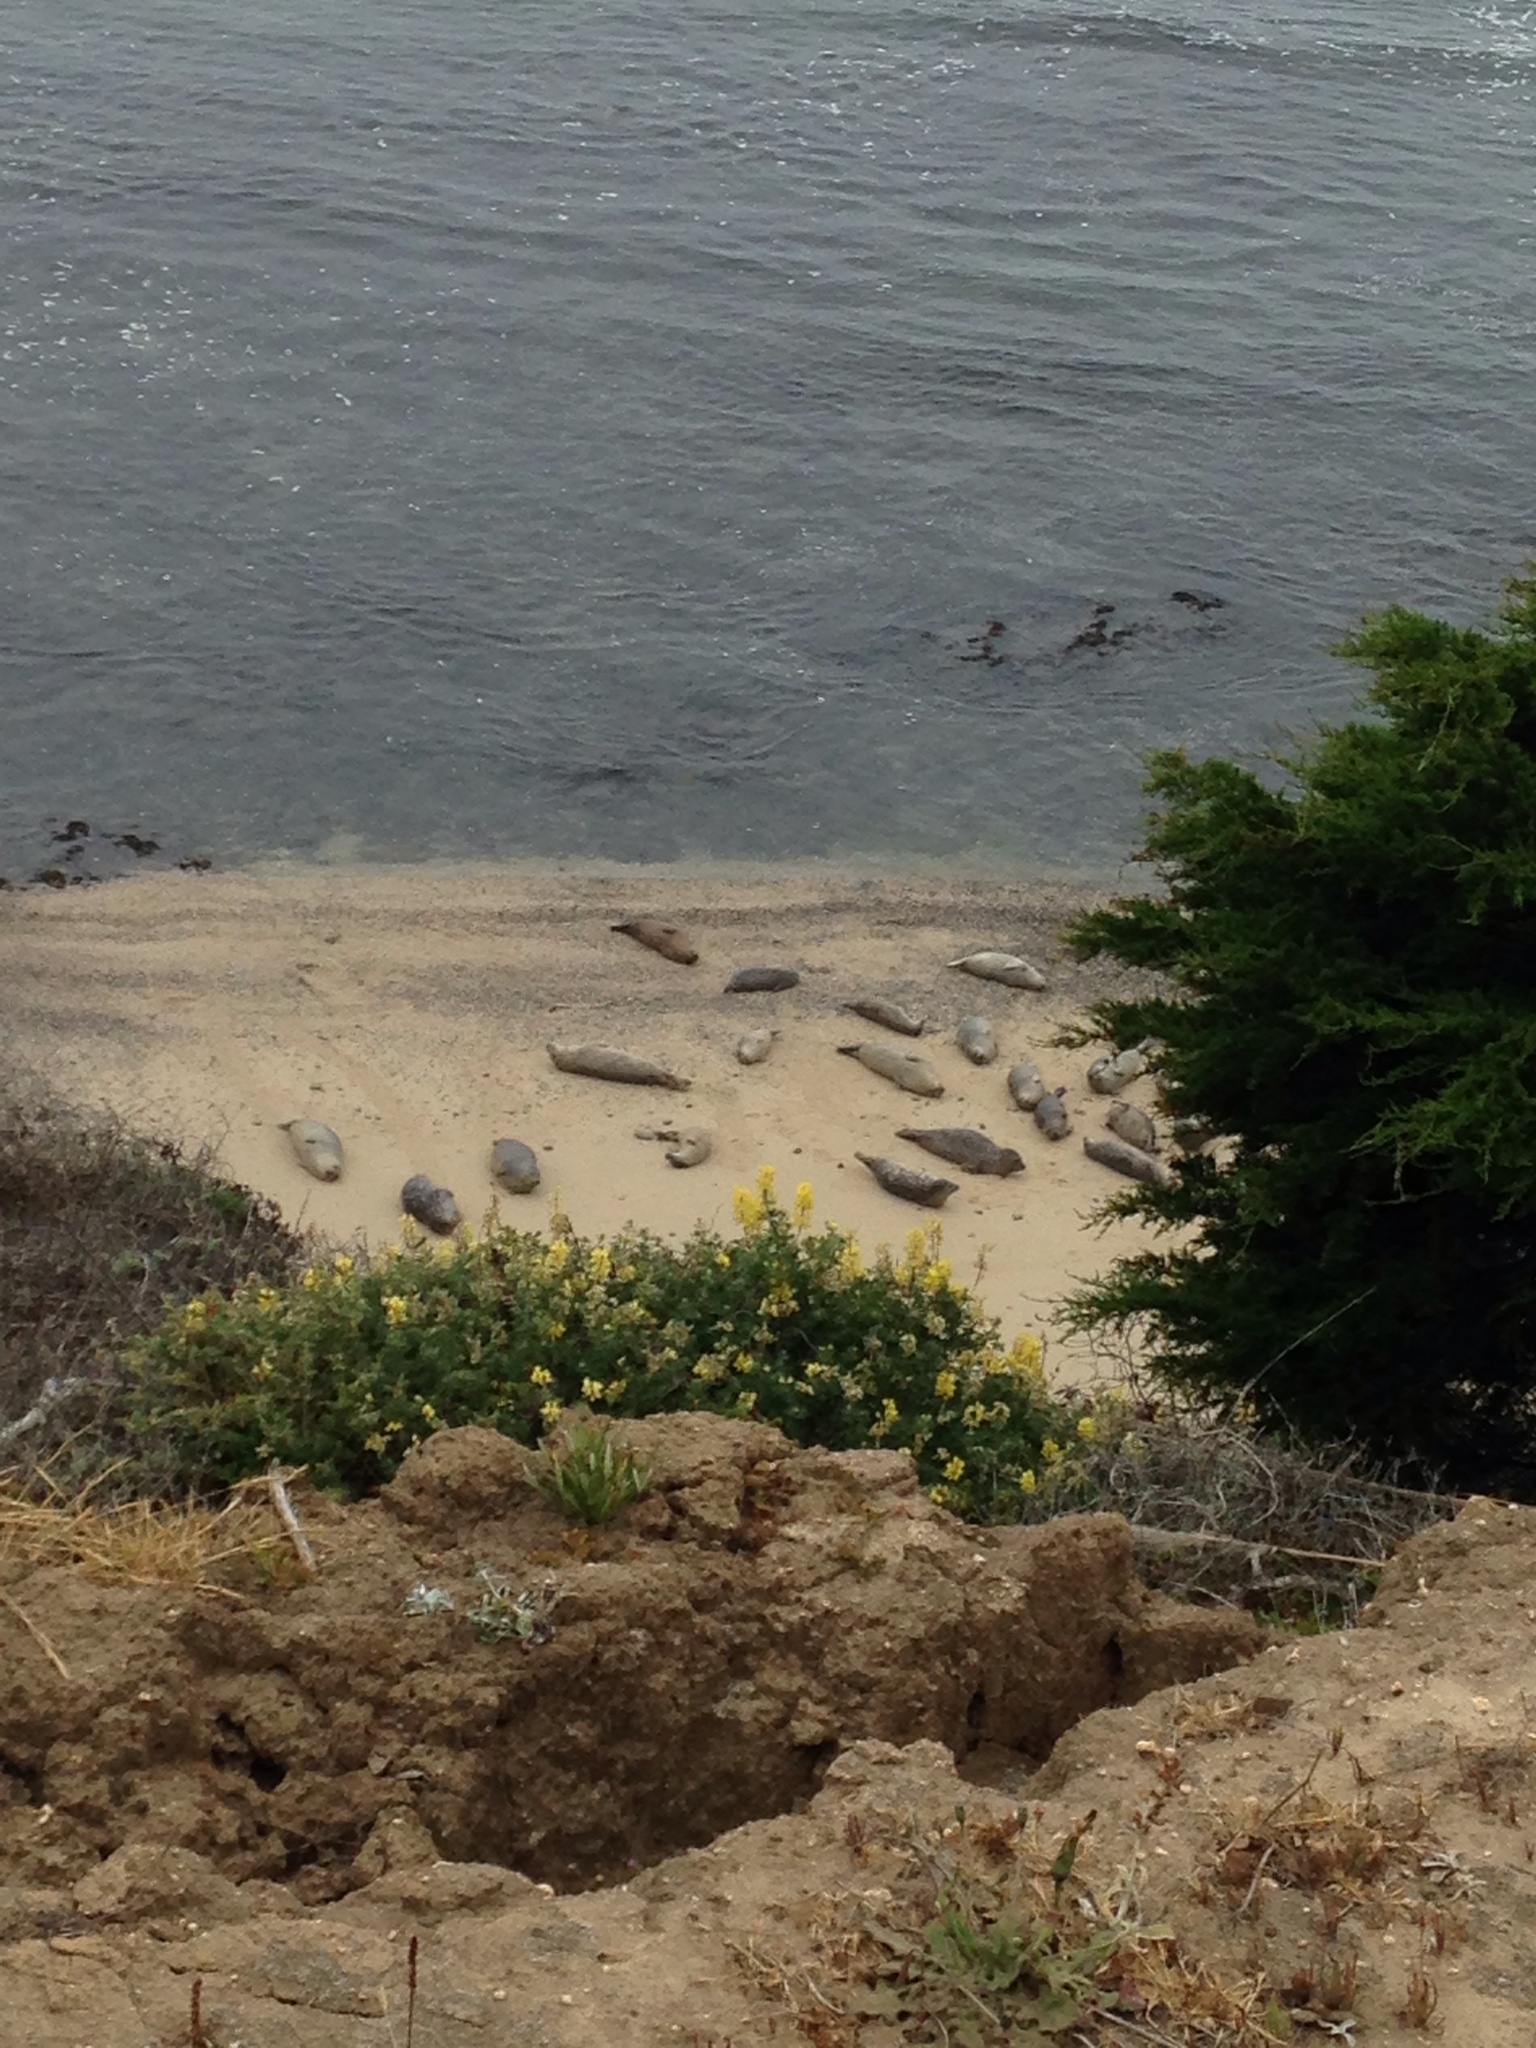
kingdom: Animalia
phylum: Chordata
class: Mammalia
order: Carnivora
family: Phocidae
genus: Phoca
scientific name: Phoca vitulina
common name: Harbor seal
